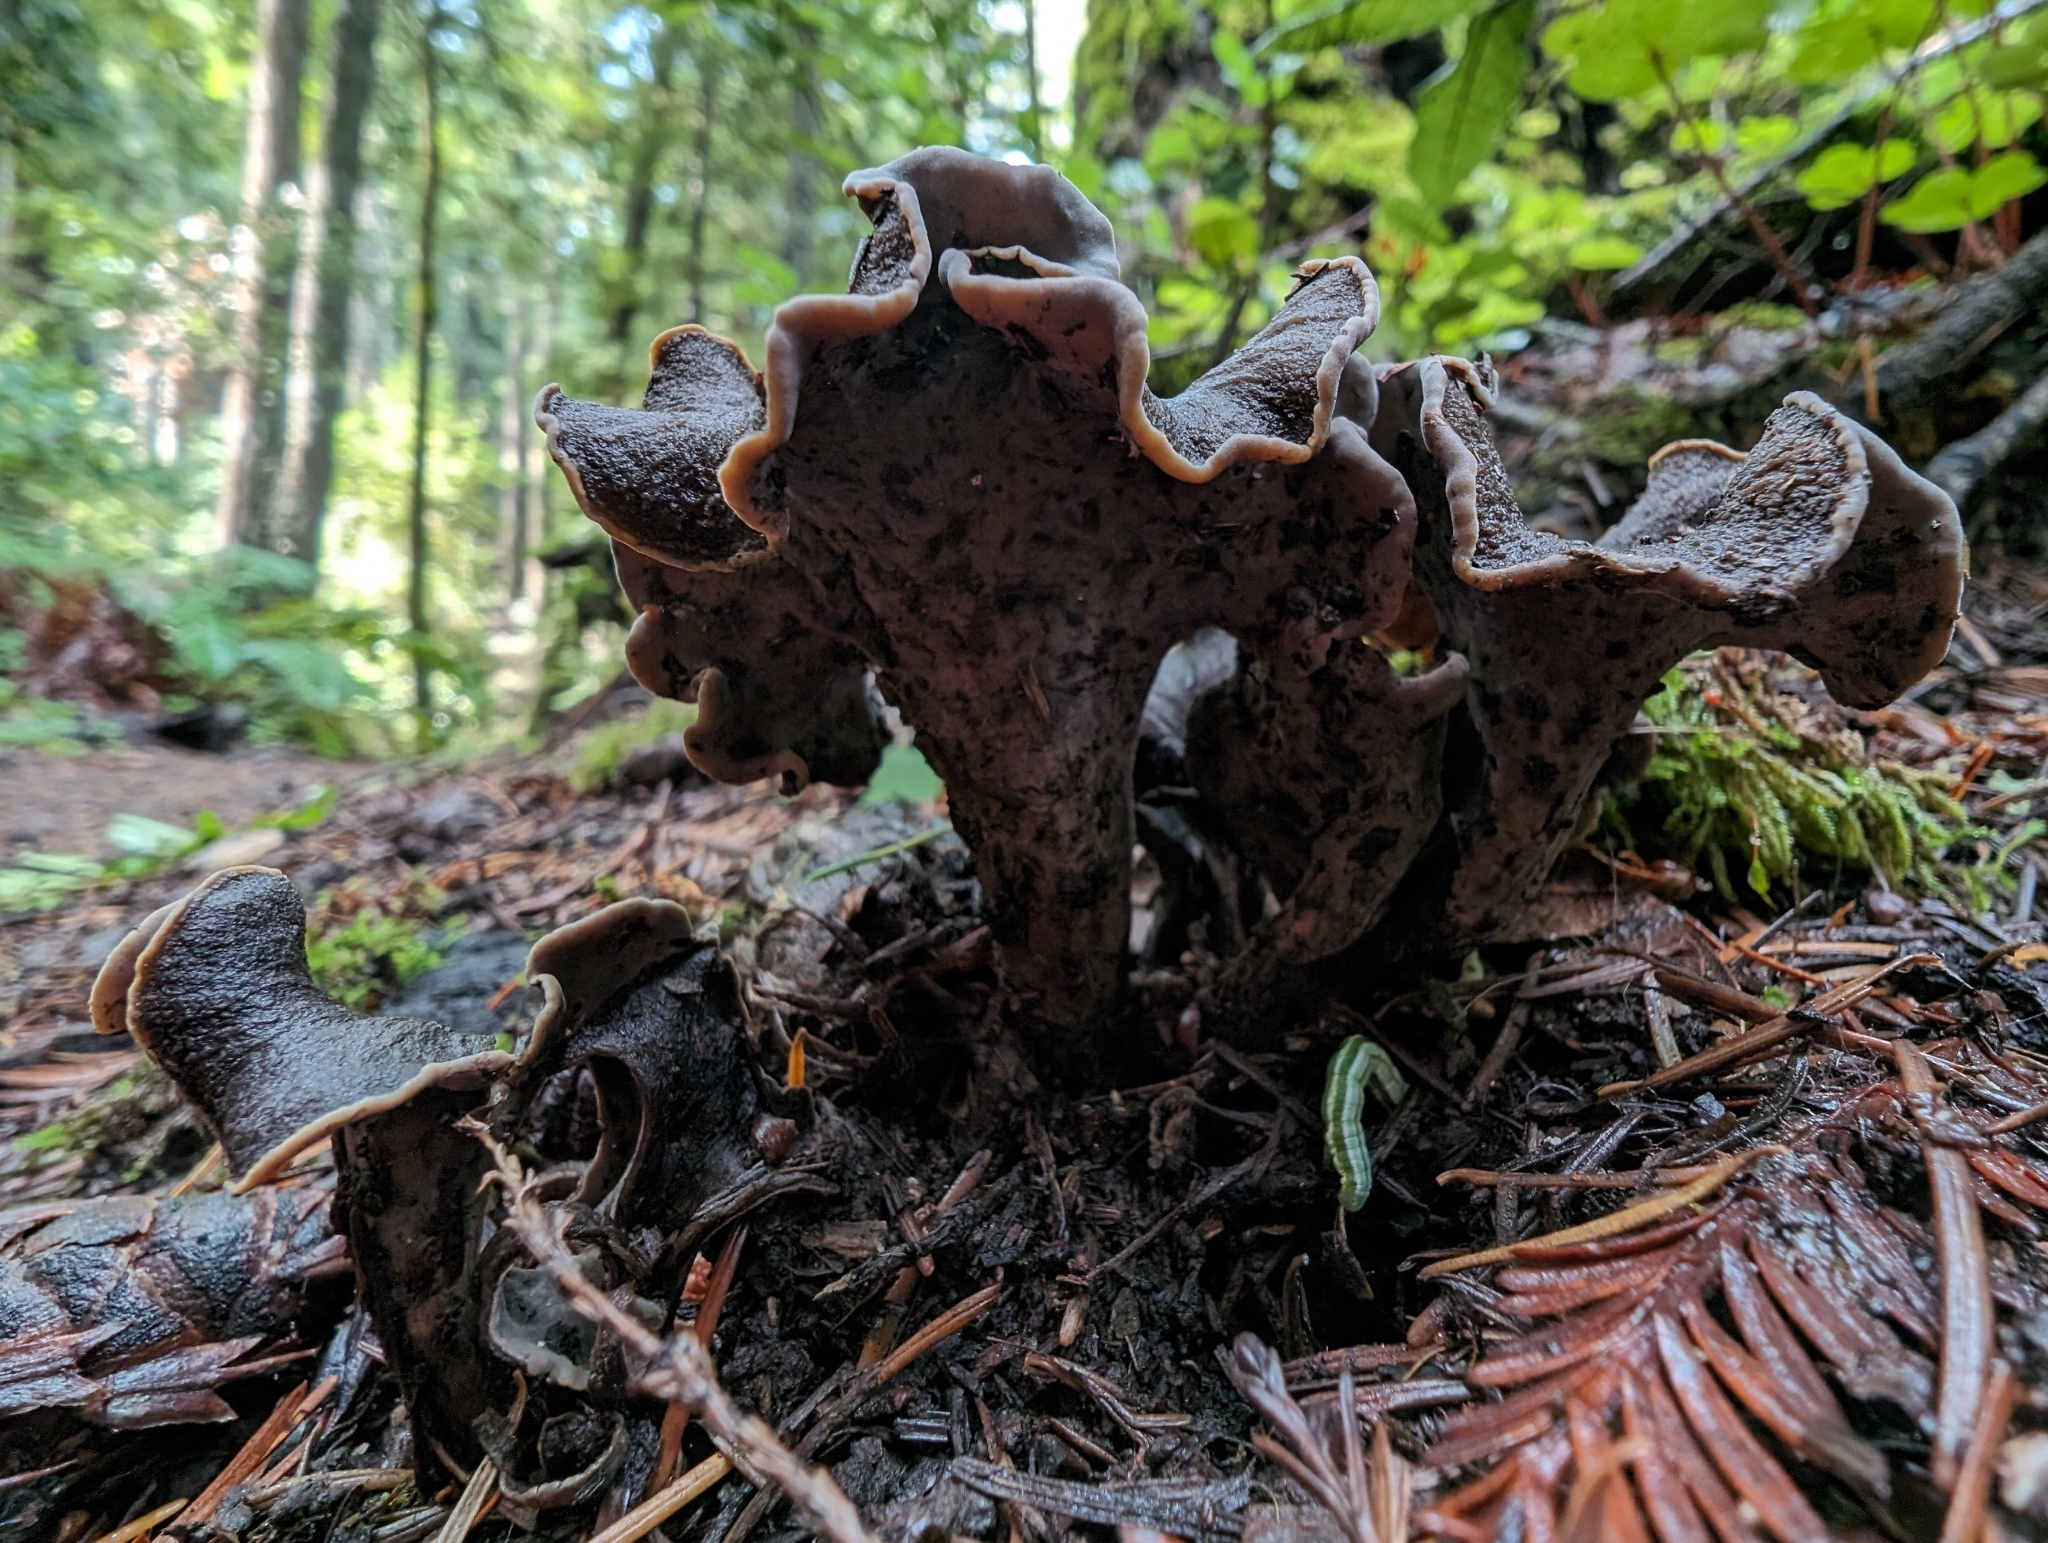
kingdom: Fungi
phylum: Basidiomycota
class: Agaricomycetes
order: Cantharellales
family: Hydnaceae
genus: Craterellus
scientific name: Craterellus calicornucopioides
